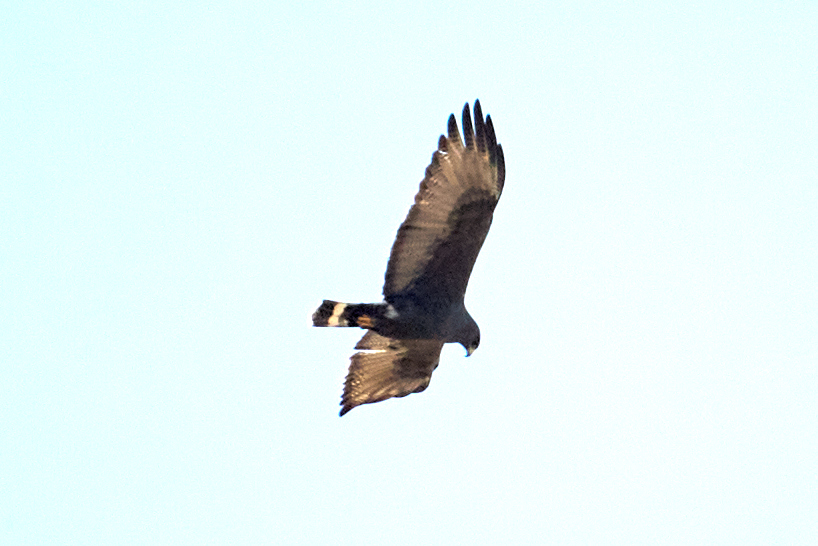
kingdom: Animalia
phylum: Chordata
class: Aves
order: Accipitriformes
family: Accipitridae
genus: Buteo
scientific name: Buteo albonotatus
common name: Zone-tailed hawk
